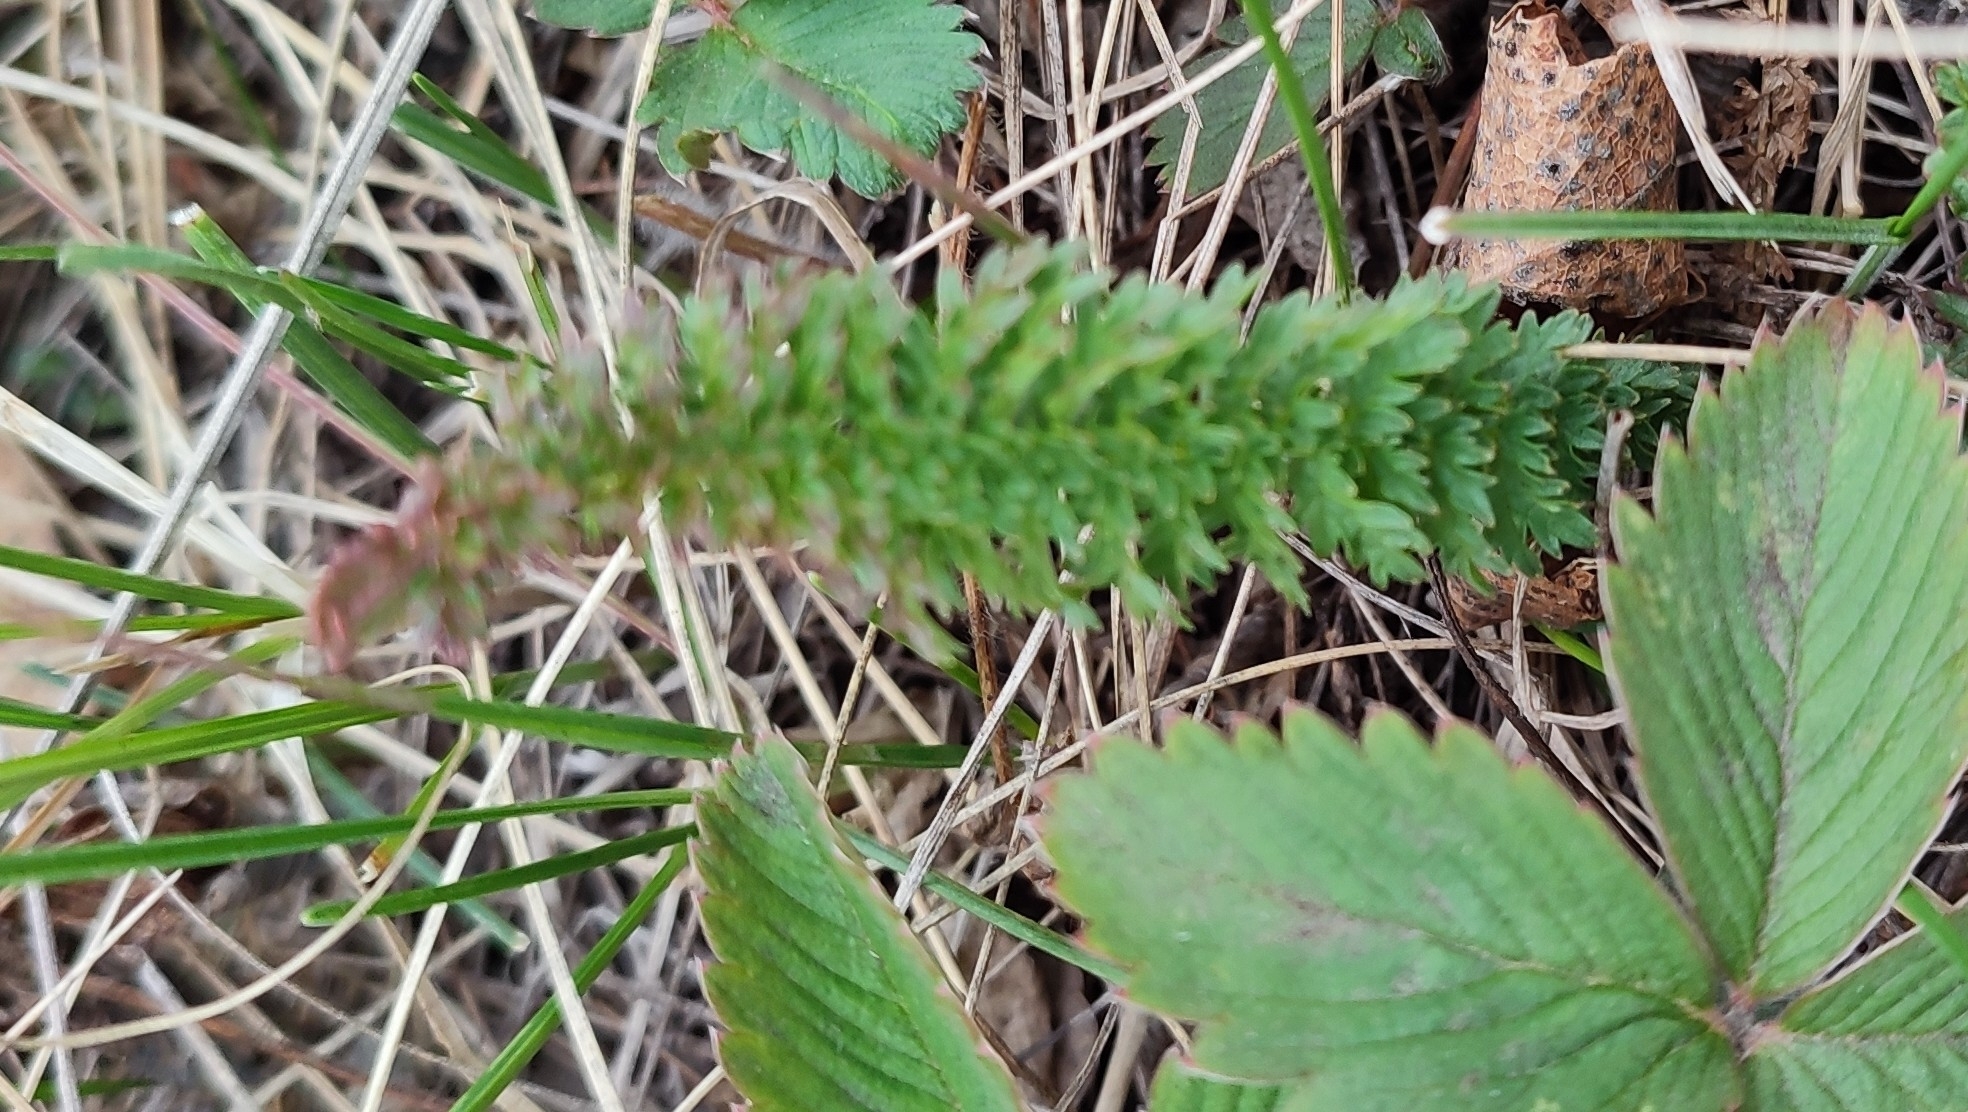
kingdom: Plantae
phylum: Tracheophyta
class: Magnoliopsida
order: Rosales
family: Rosaceae
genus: Filipendula
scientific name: Filipendula vulgaris
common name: Dropwort
